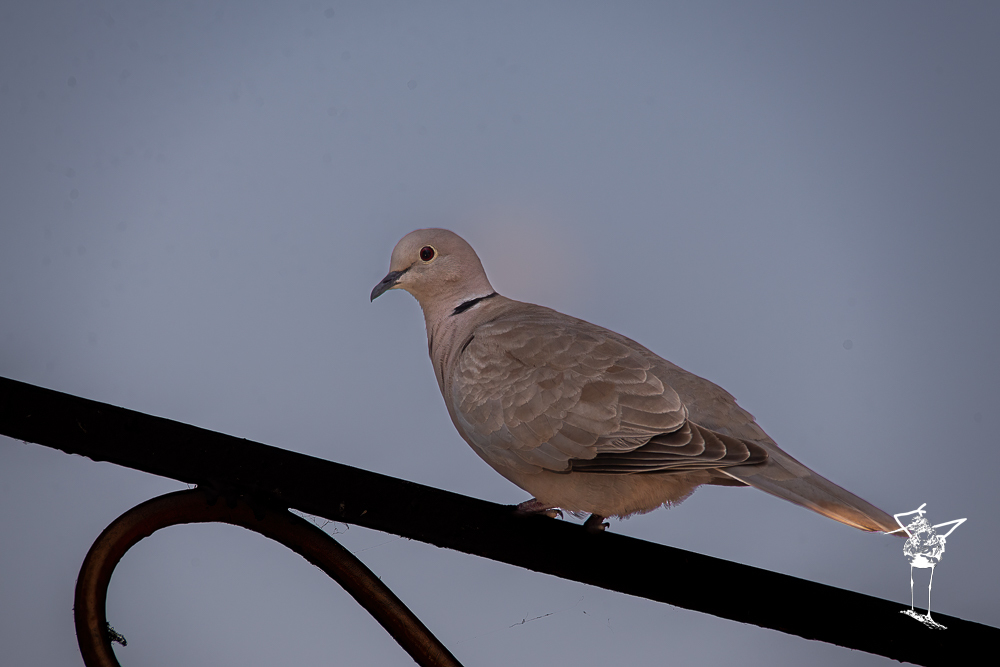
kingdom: Animalia
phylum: Chordata
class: Aves
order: Columbiformes
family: Columbidae
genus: Streptopelia
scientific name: Streptopelia decaocto
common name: Eurasian collared dove
